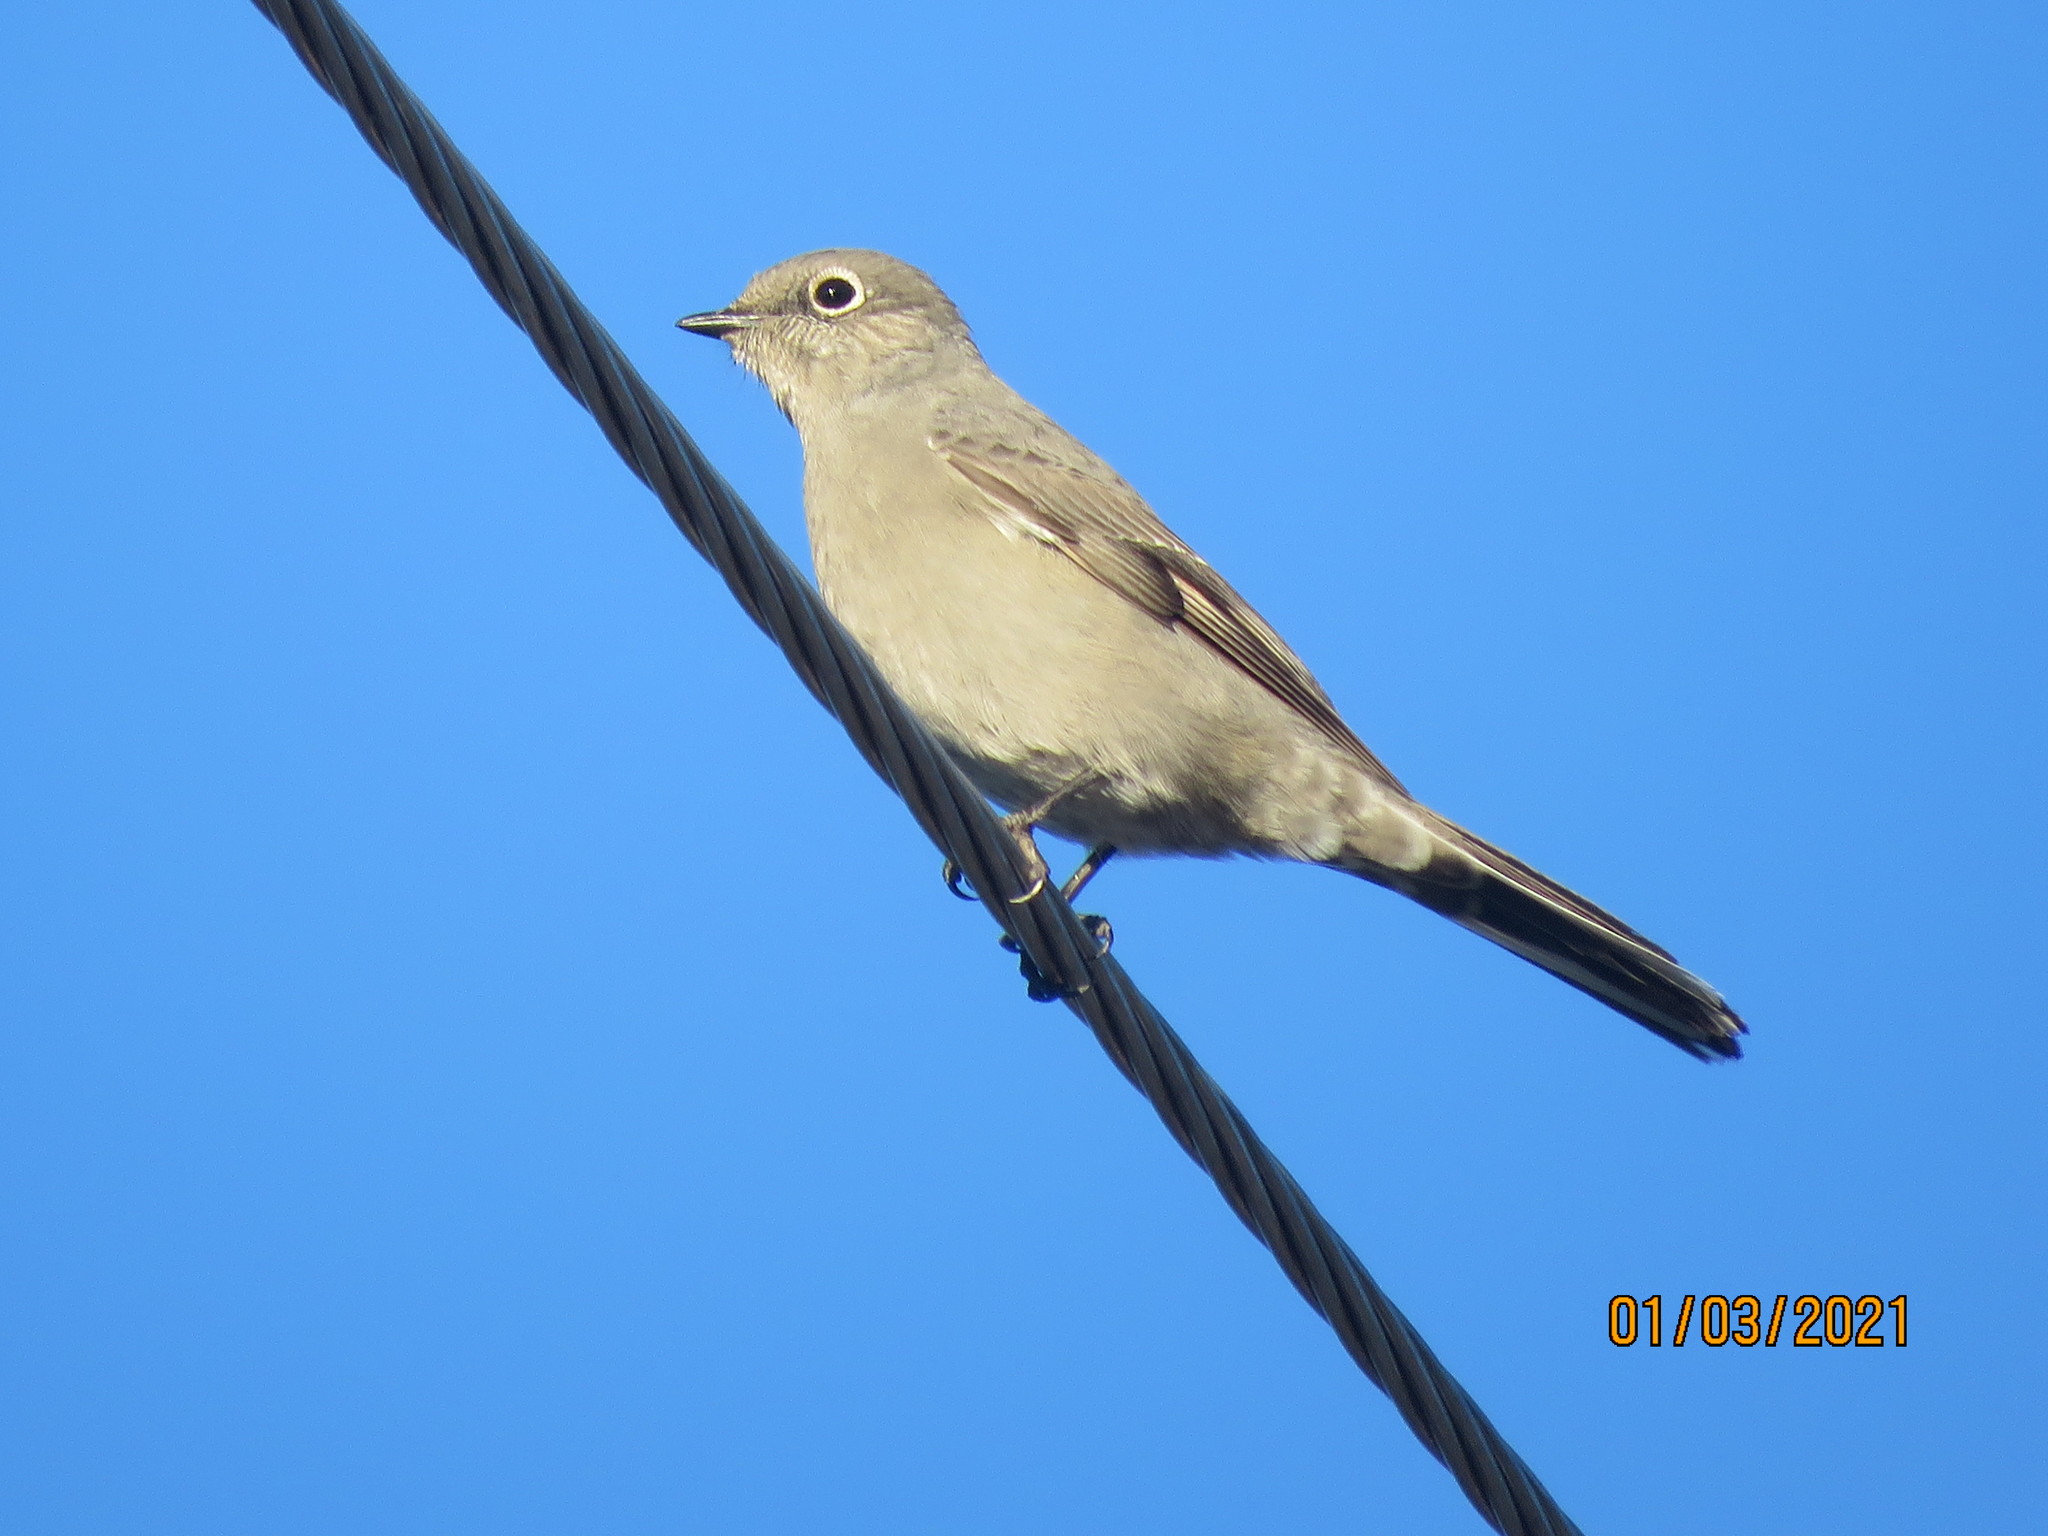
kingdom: Animalia
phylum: Chordata
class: Aves
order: Passeriformes
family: Turdidae
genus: Myadestes
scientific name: Myadestes townsendi
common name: Townsend's solitaire
